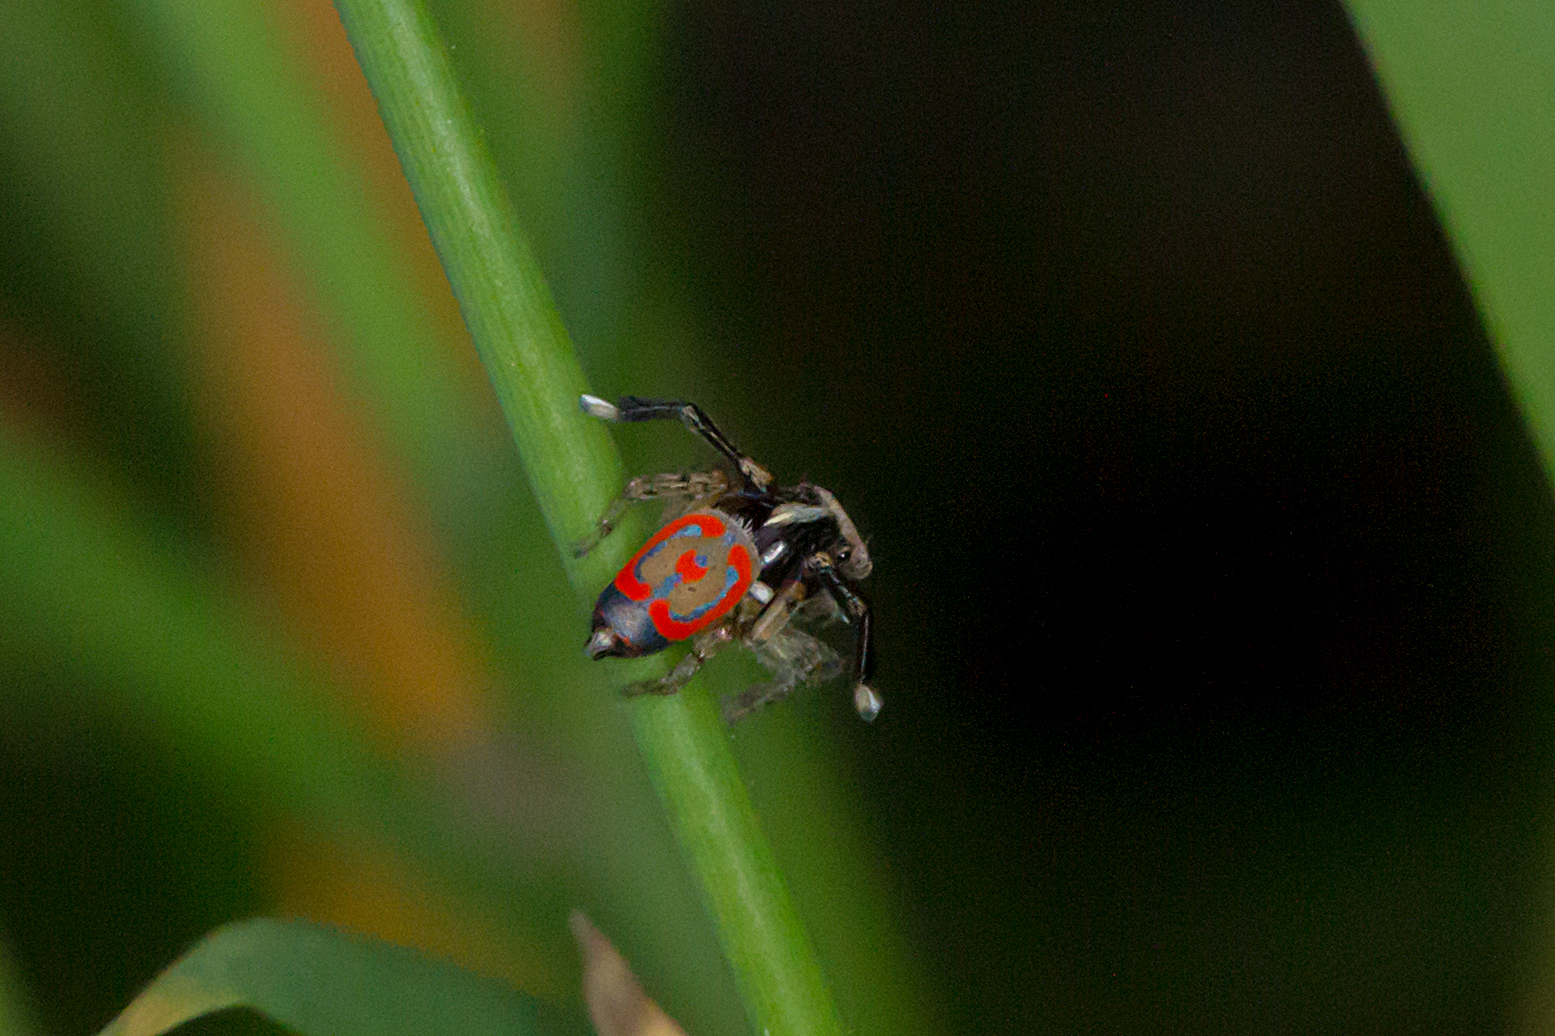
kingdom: Animalia
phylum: Arthropoda
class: Arachnida
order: Araneae
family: Salticidae
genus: Maratus
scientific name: Maratus pavonis
